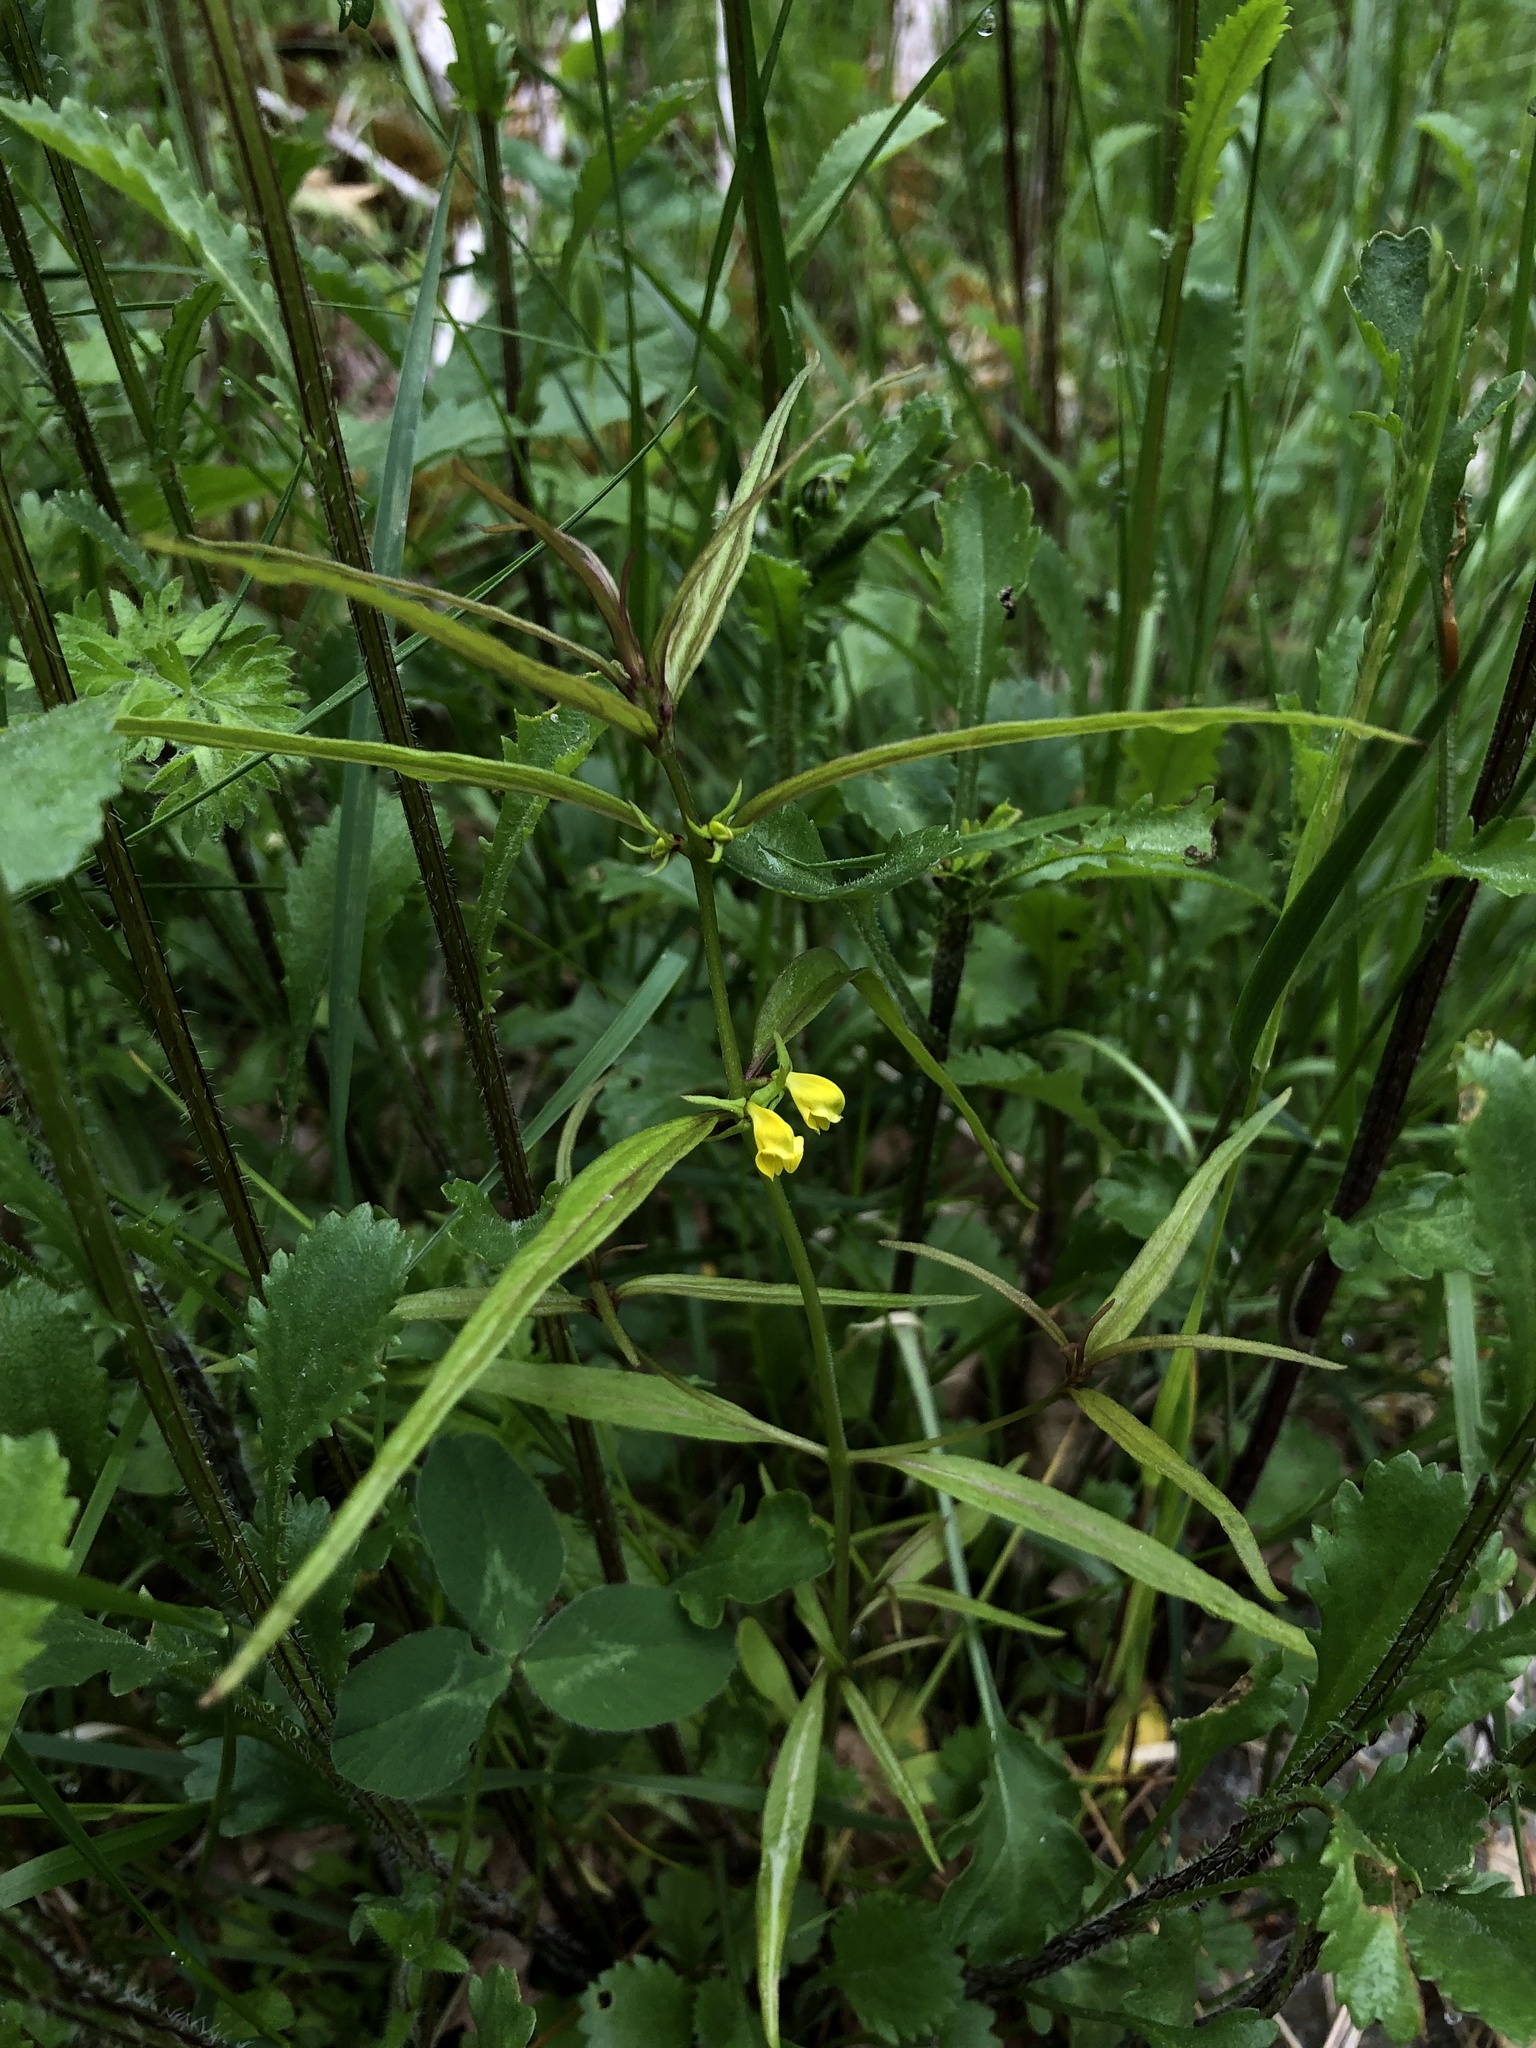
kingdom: Plantae
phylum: Tracheophyta
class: Magnoliopsida
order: Lamiales
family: Orobanchaceae
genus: Melampyrum
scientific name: Melampyrum sylvaticum
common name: Small cow-wheat
